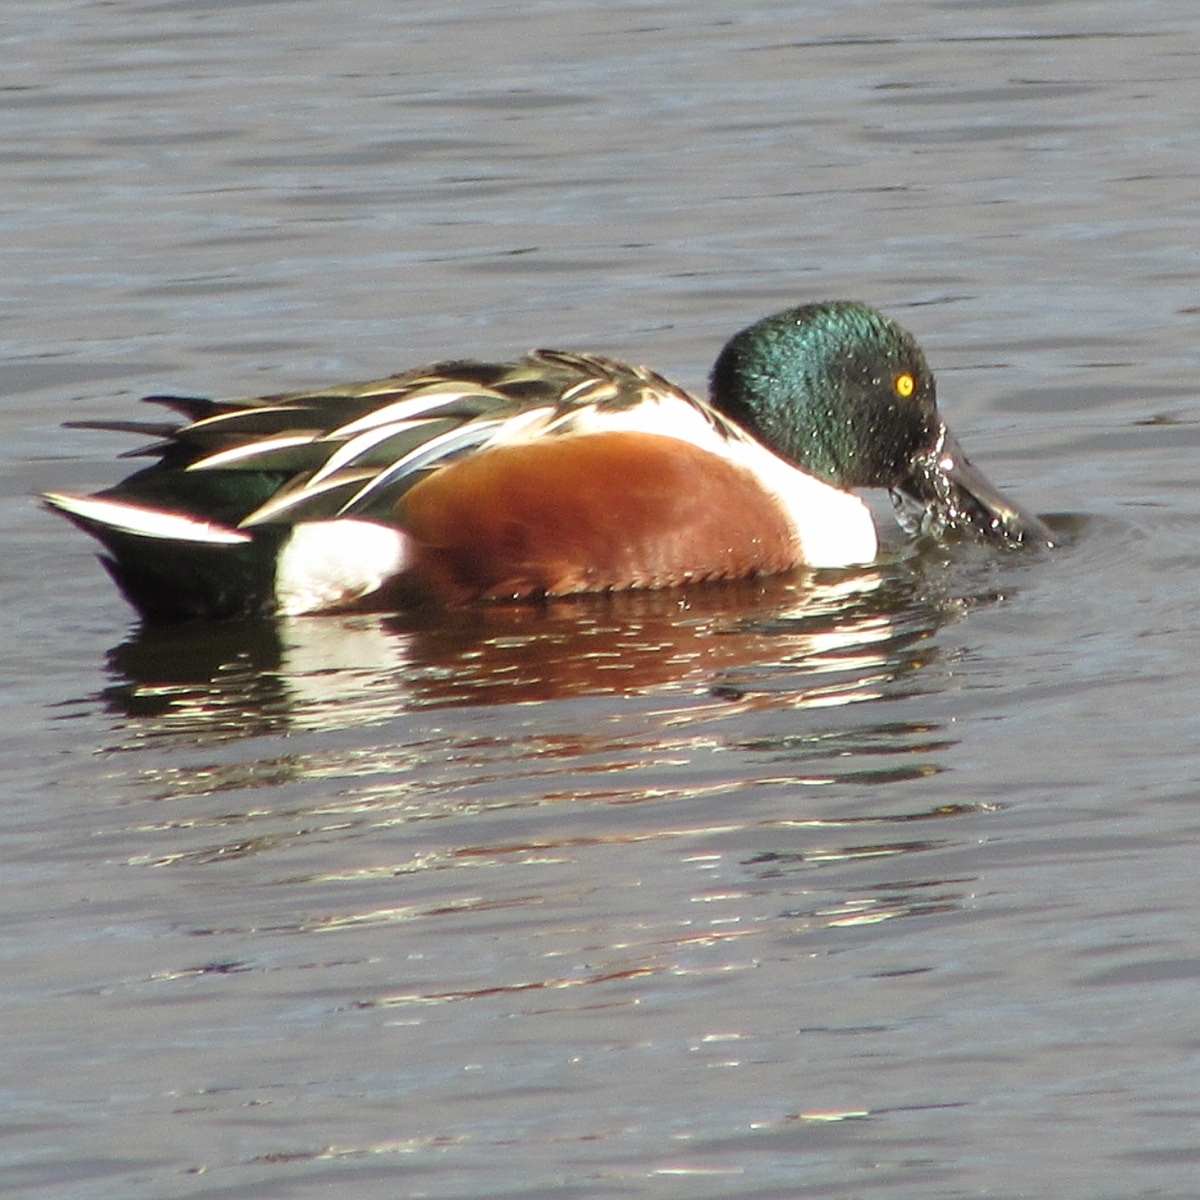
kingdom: Animalia
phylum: Chordata
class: Aves
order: Anseriformes
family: Anatidae
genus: Spatula
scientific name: Spatula clypeata
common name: Northern shoveler
